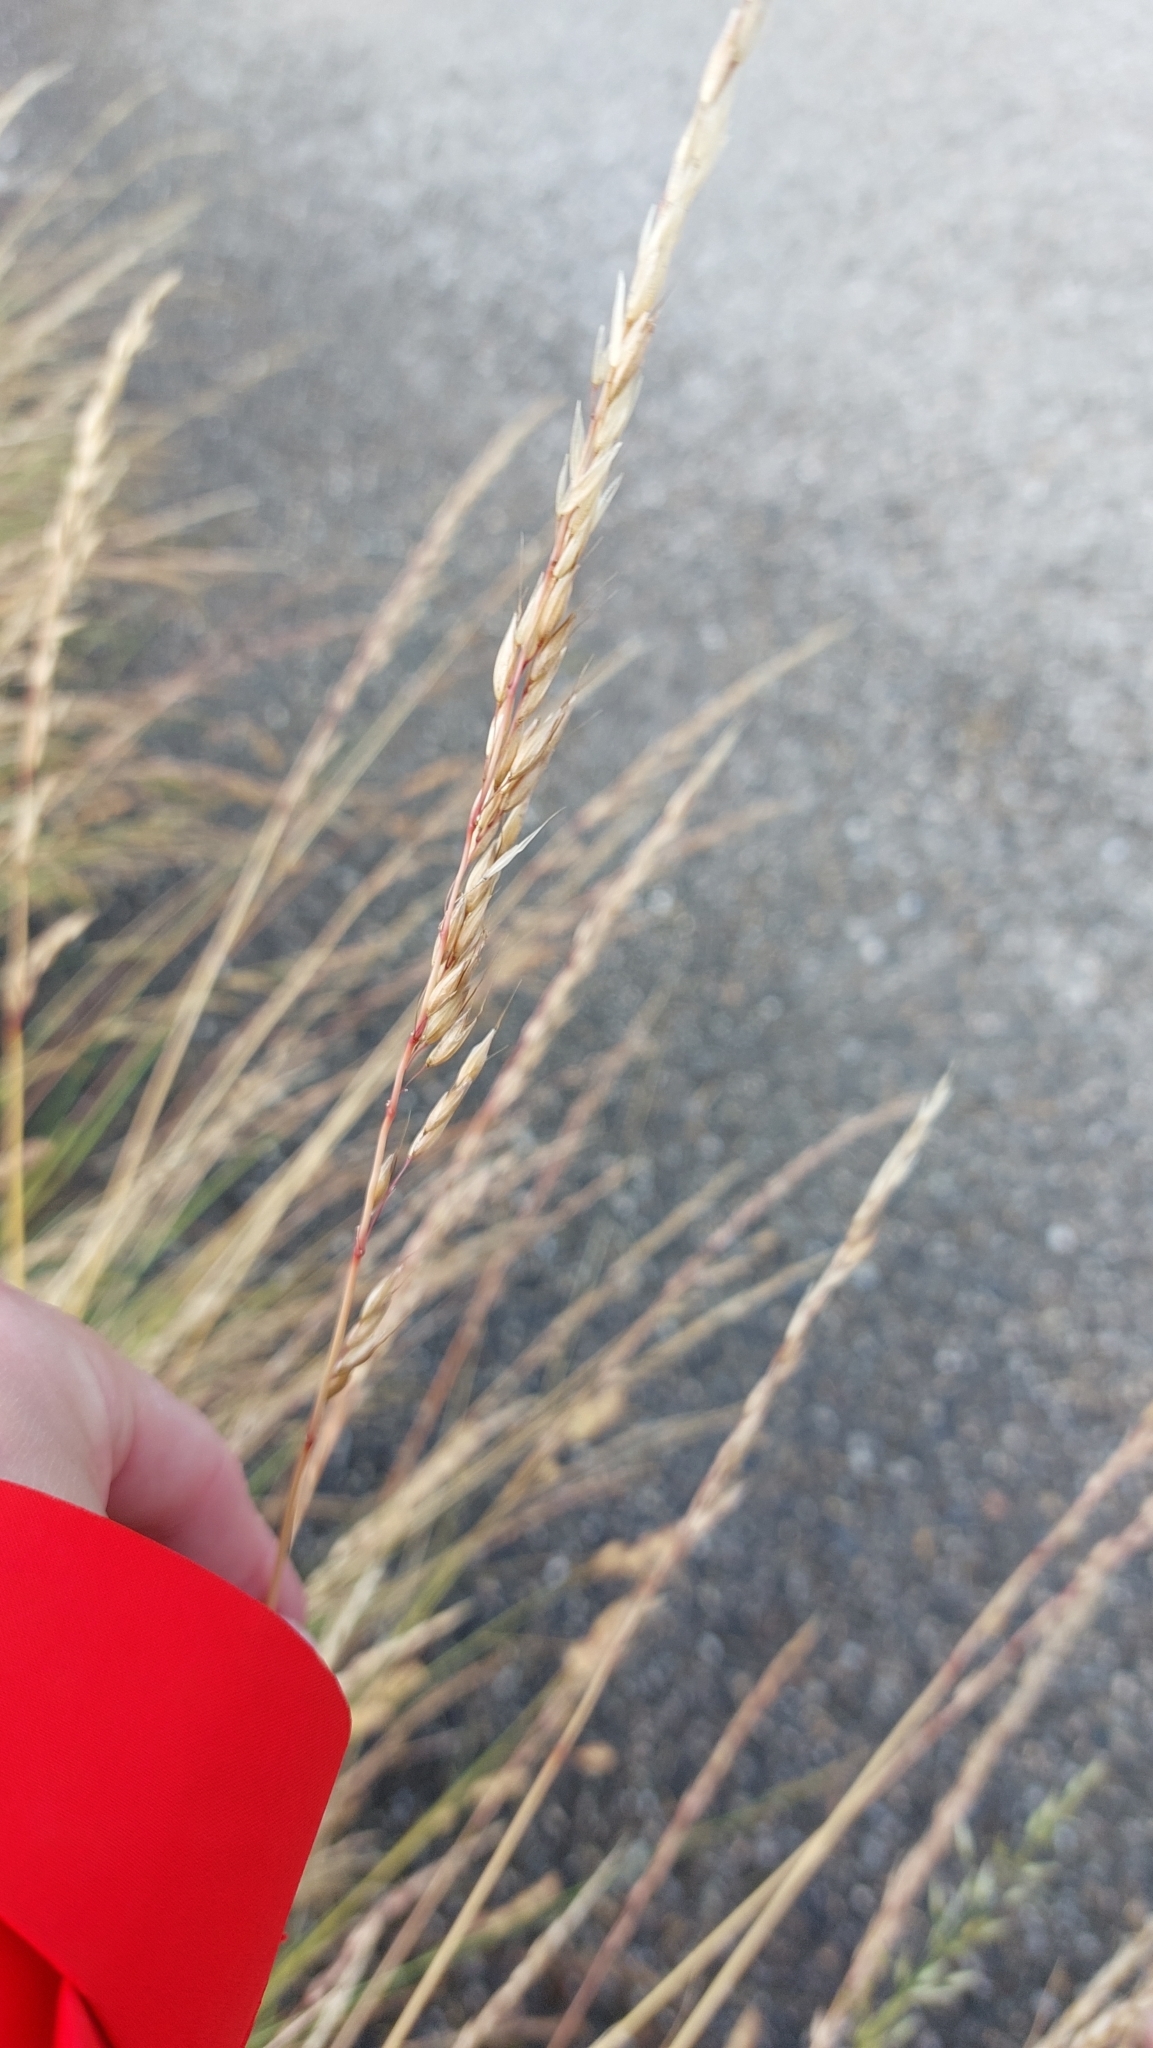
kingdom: Plantae
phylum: Tracheophyta
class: Liliopsida
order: Poales
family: Poaceae
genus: Arrhenatherum
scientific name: Arrhenatherum elatius
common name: Tall oatgrass
